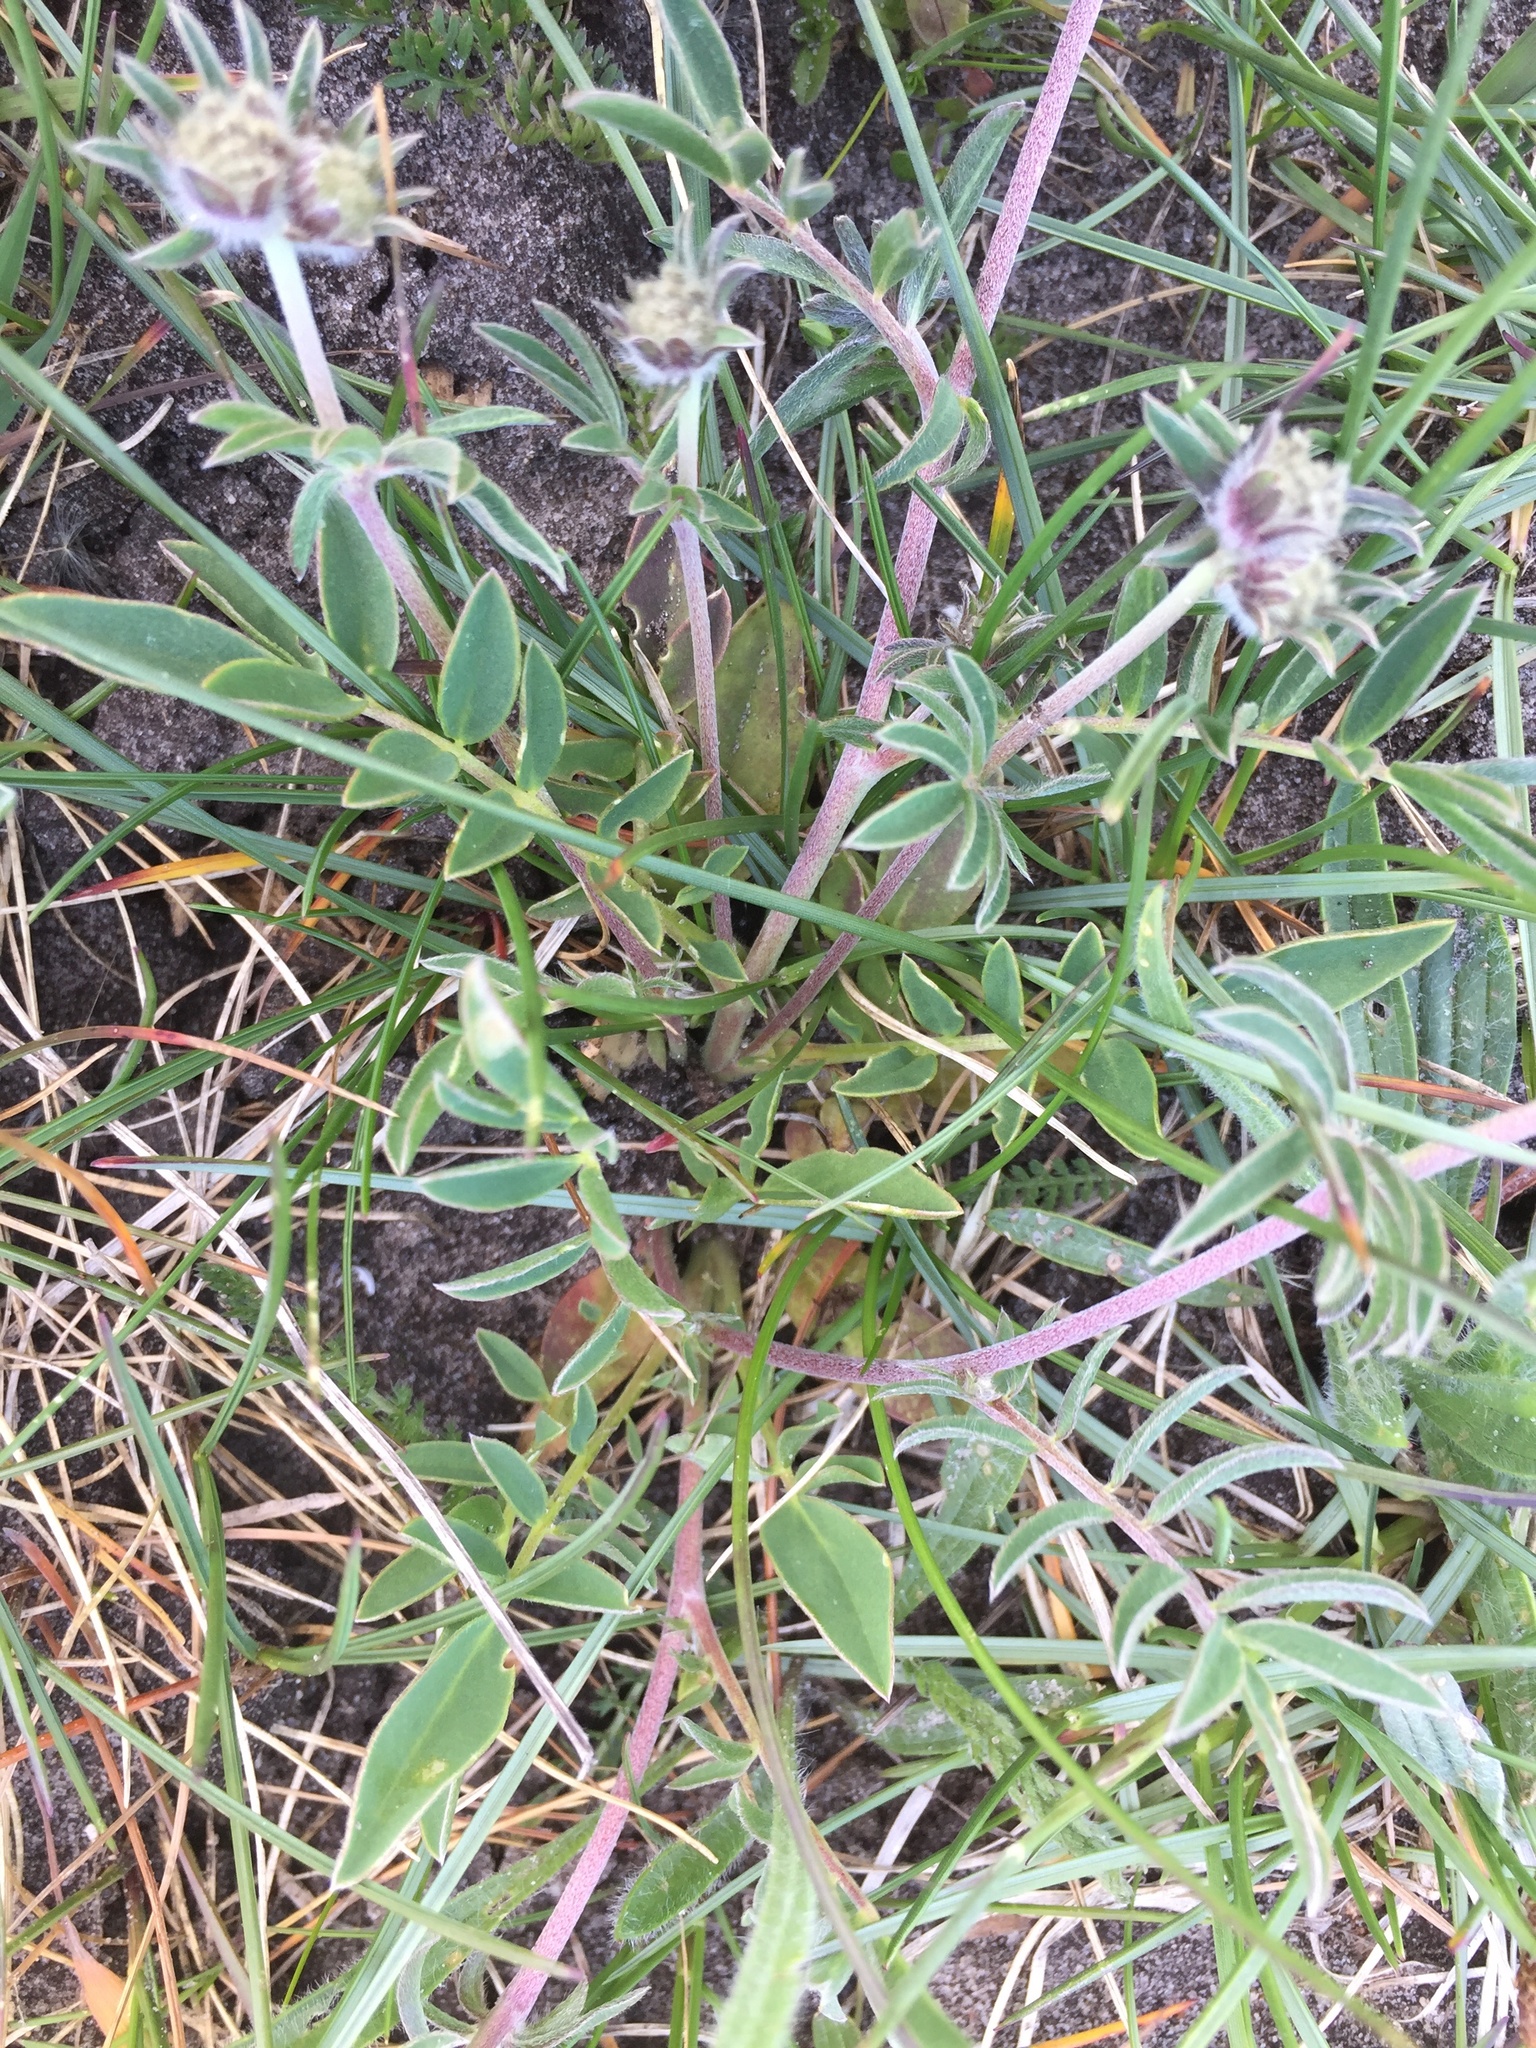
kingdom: Plantae
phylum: Tracheophyta
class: Magnoliopsida
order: Fabales
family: Fabaceae
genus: Anthyllis
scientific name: Anthyllis vulneraria
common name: Kidney vetch
